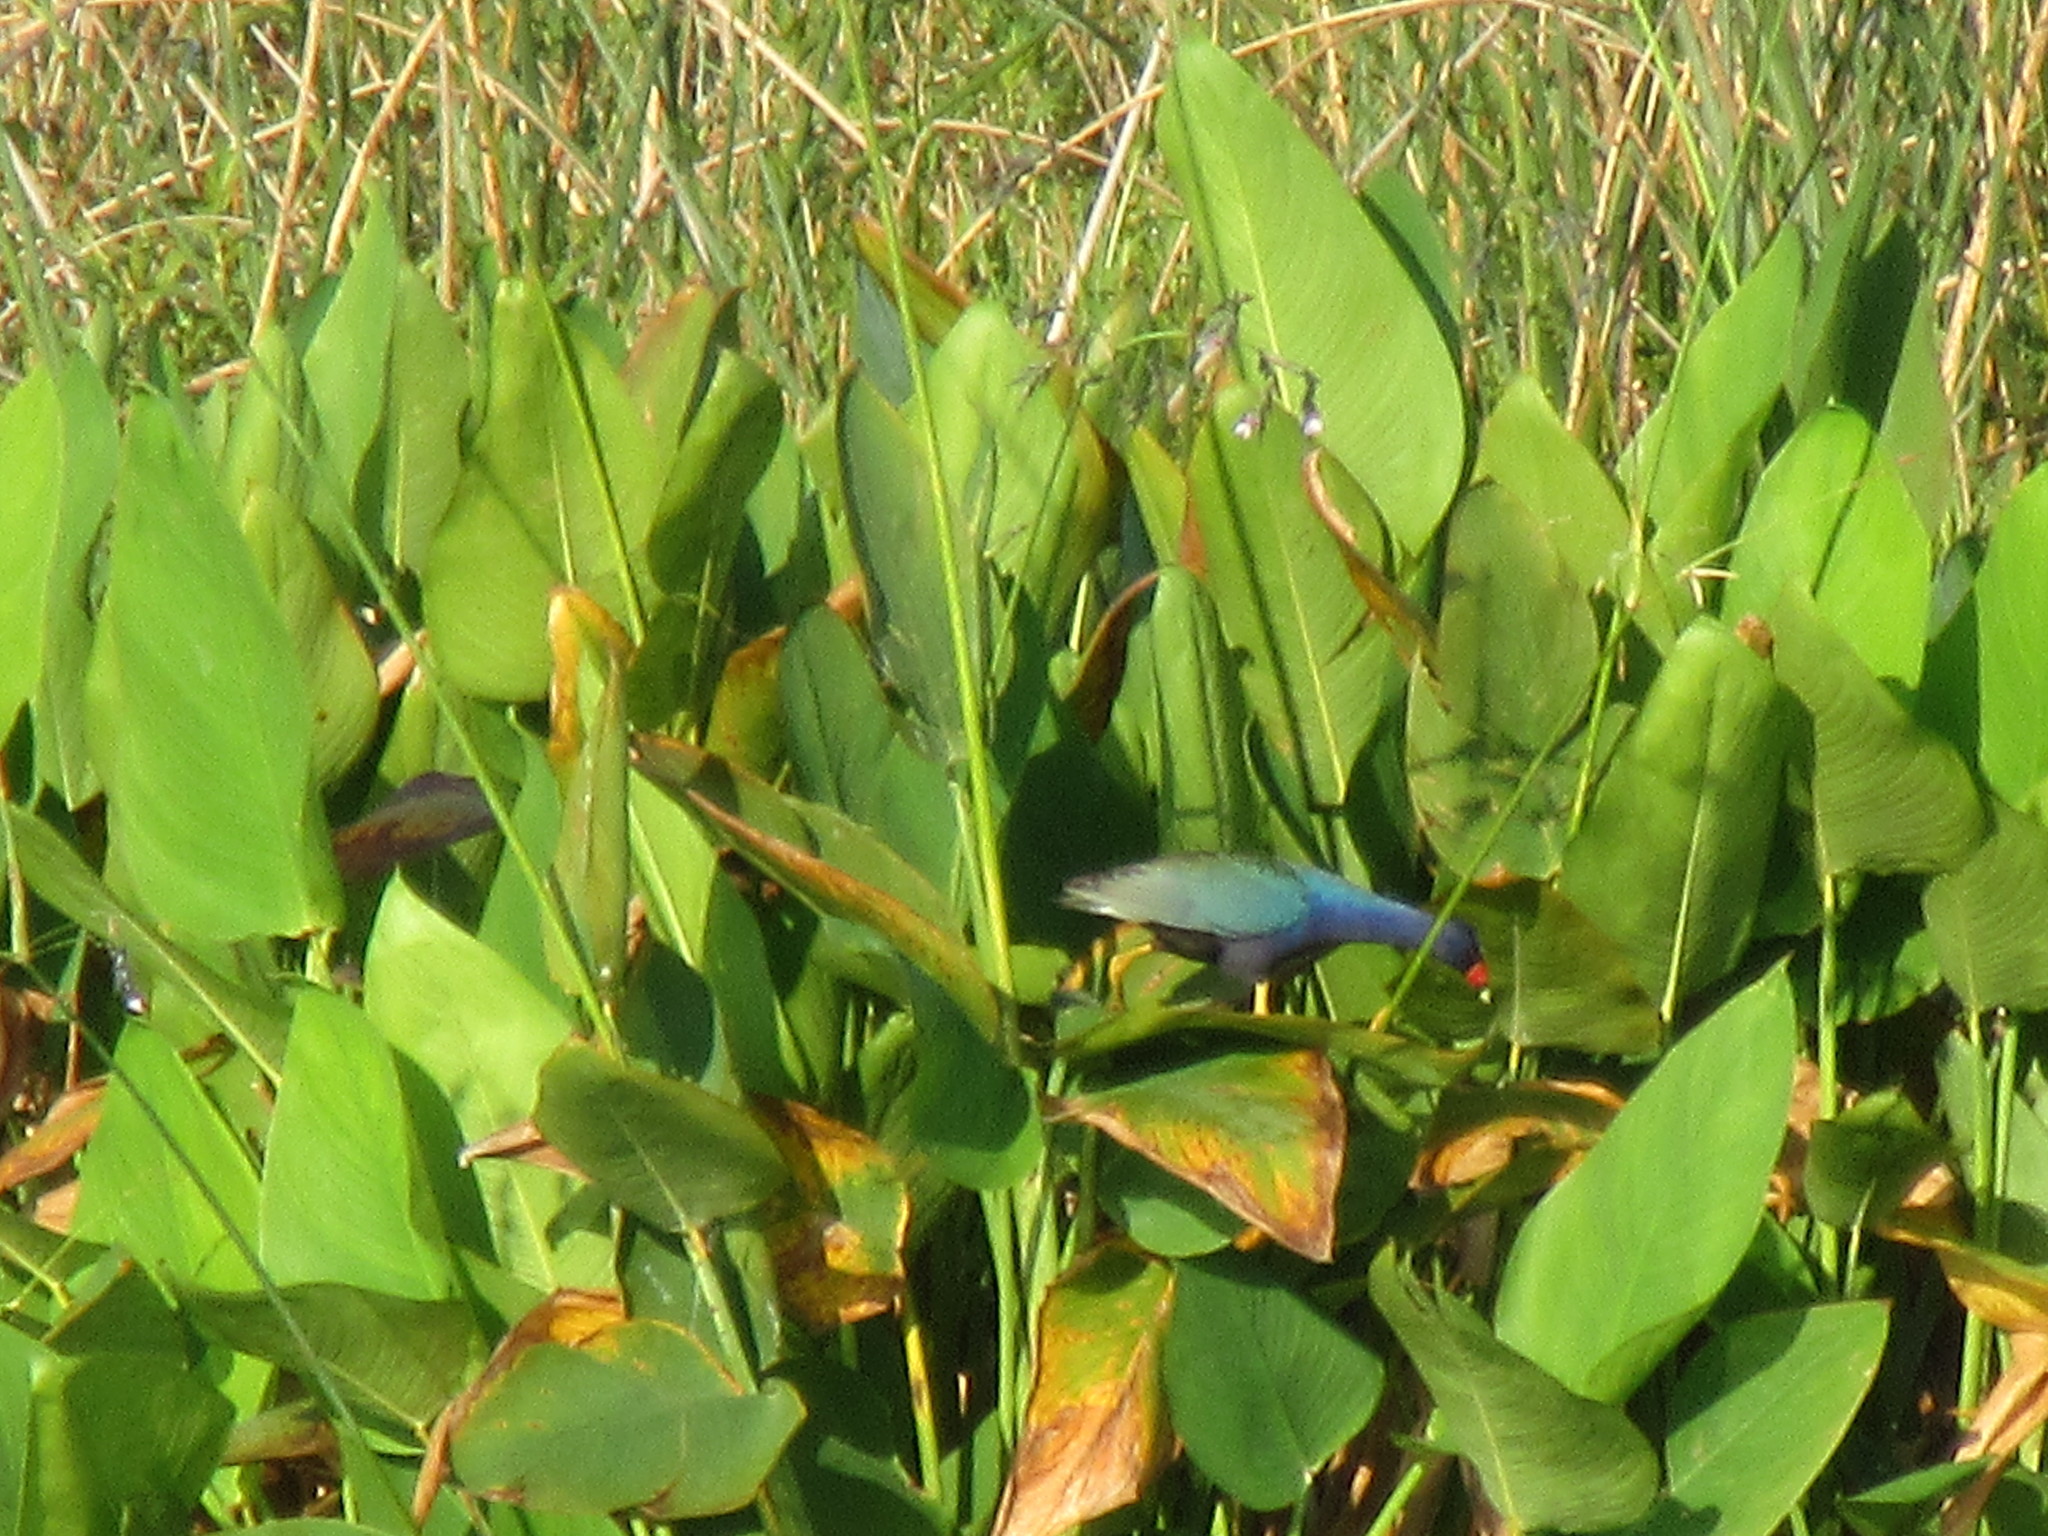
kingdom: Animalia
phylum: Chordata
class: Aves
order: Gruiformes
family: Rallidae
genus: Porphyrio
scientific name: Porphyrio martinica
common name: Purple gallinule
